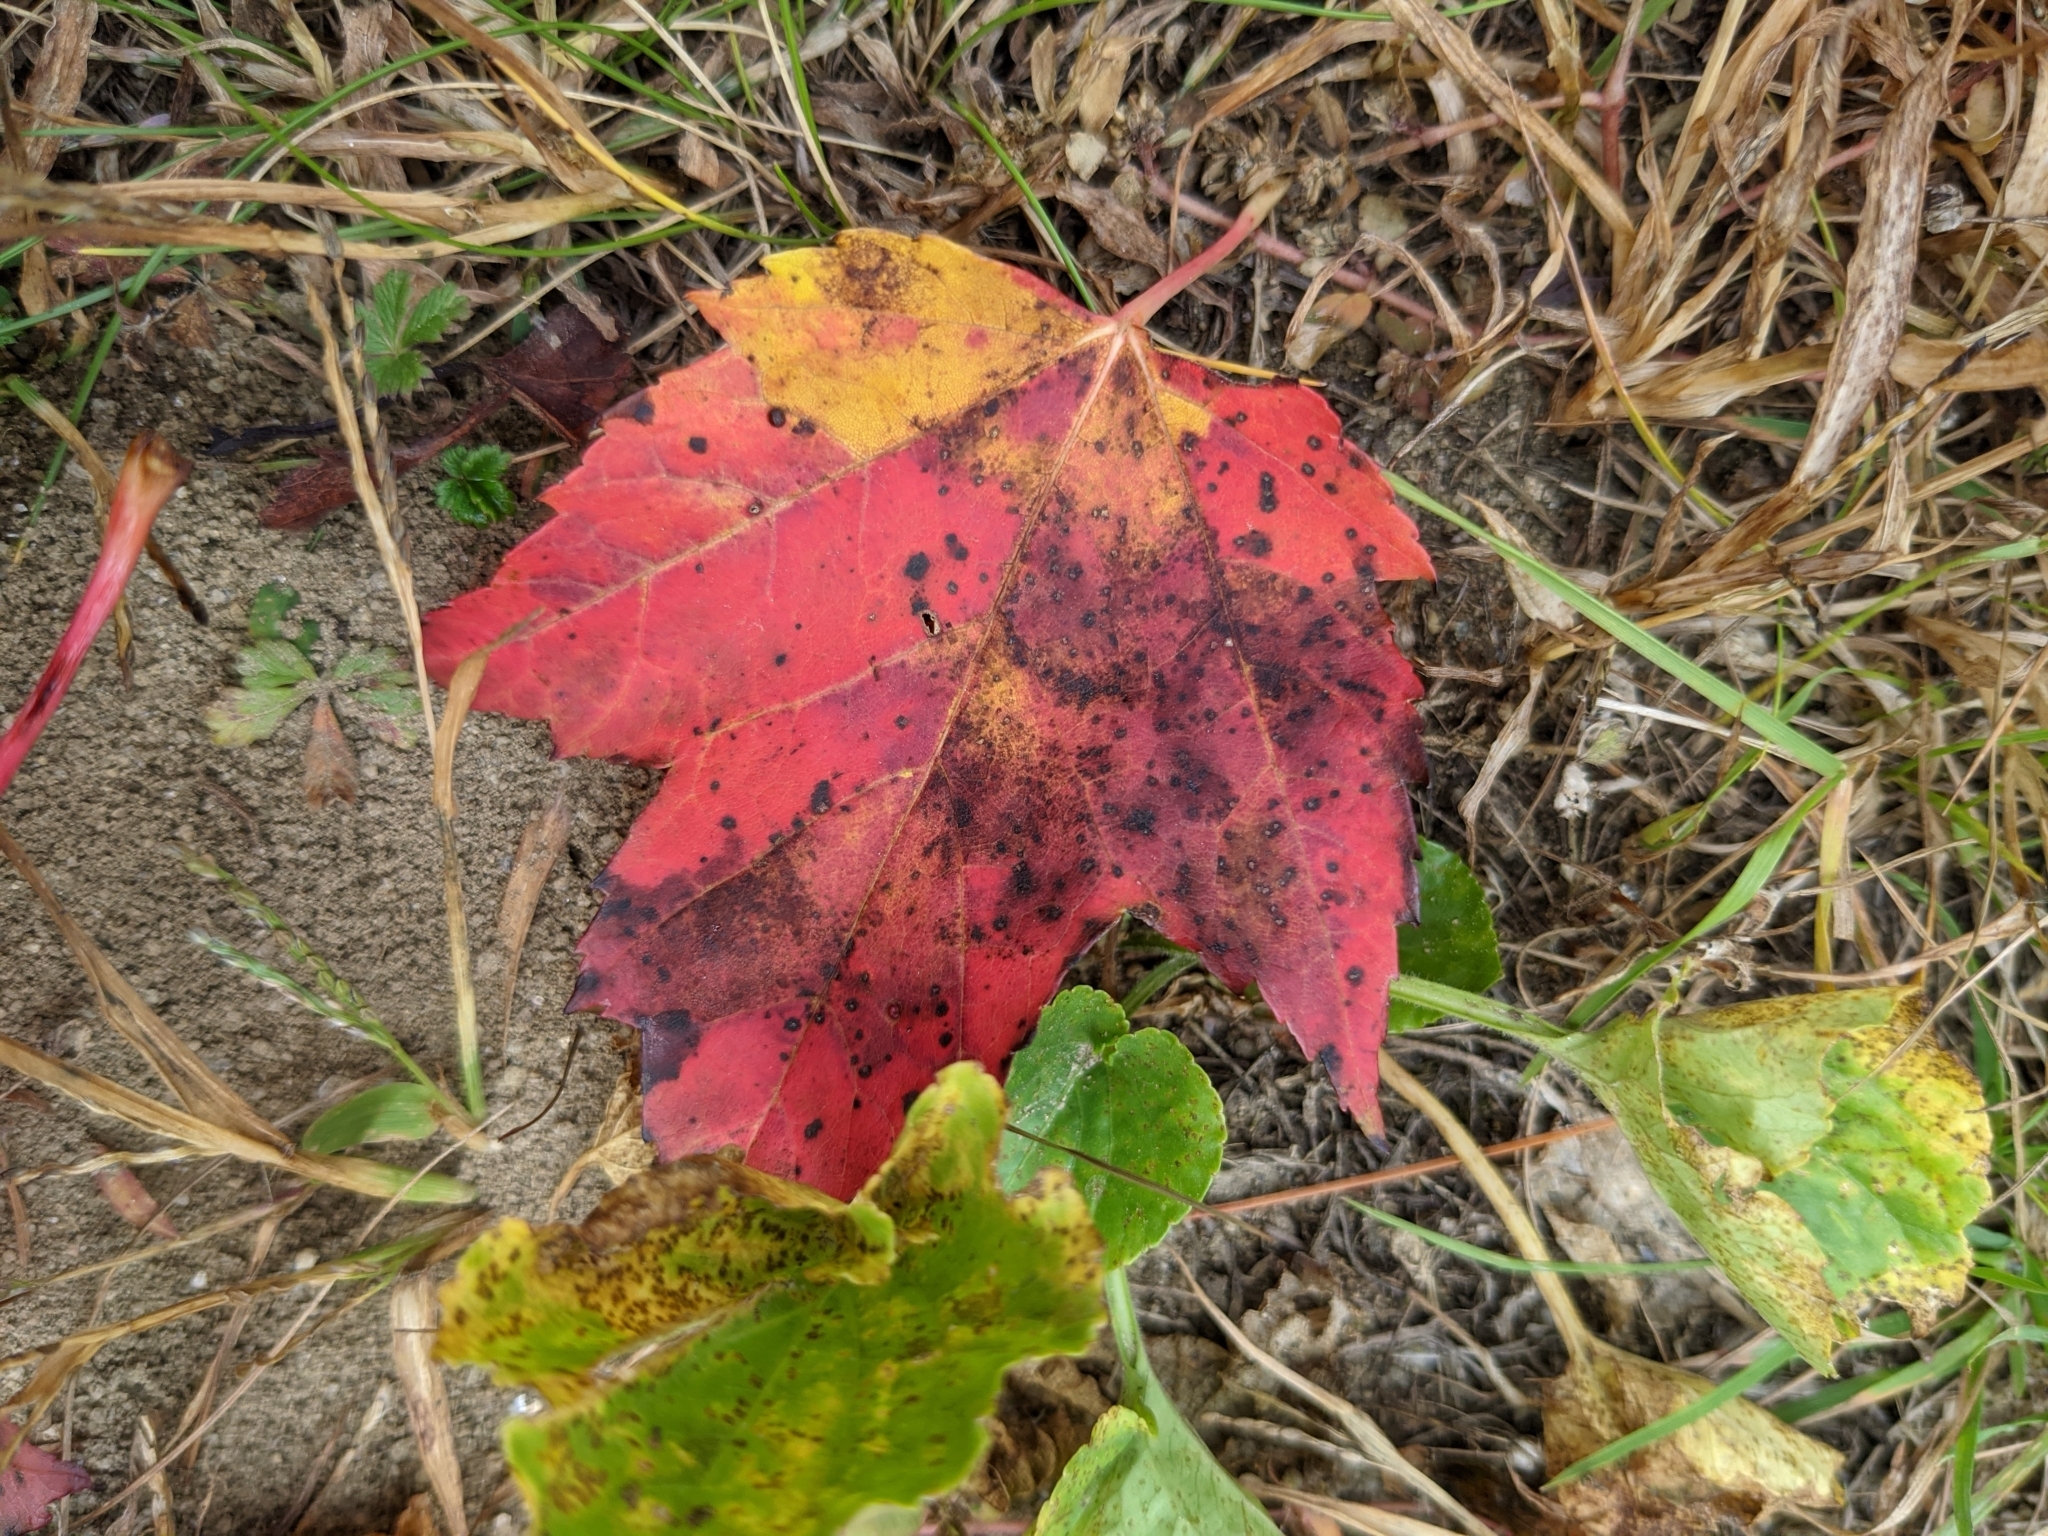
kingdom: Plantae
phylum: Tracheophyta
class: Magnoliopsida
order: Sapindales
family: Sapindaceae
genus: Acer
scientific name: Acer rubrum
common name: Red maple
